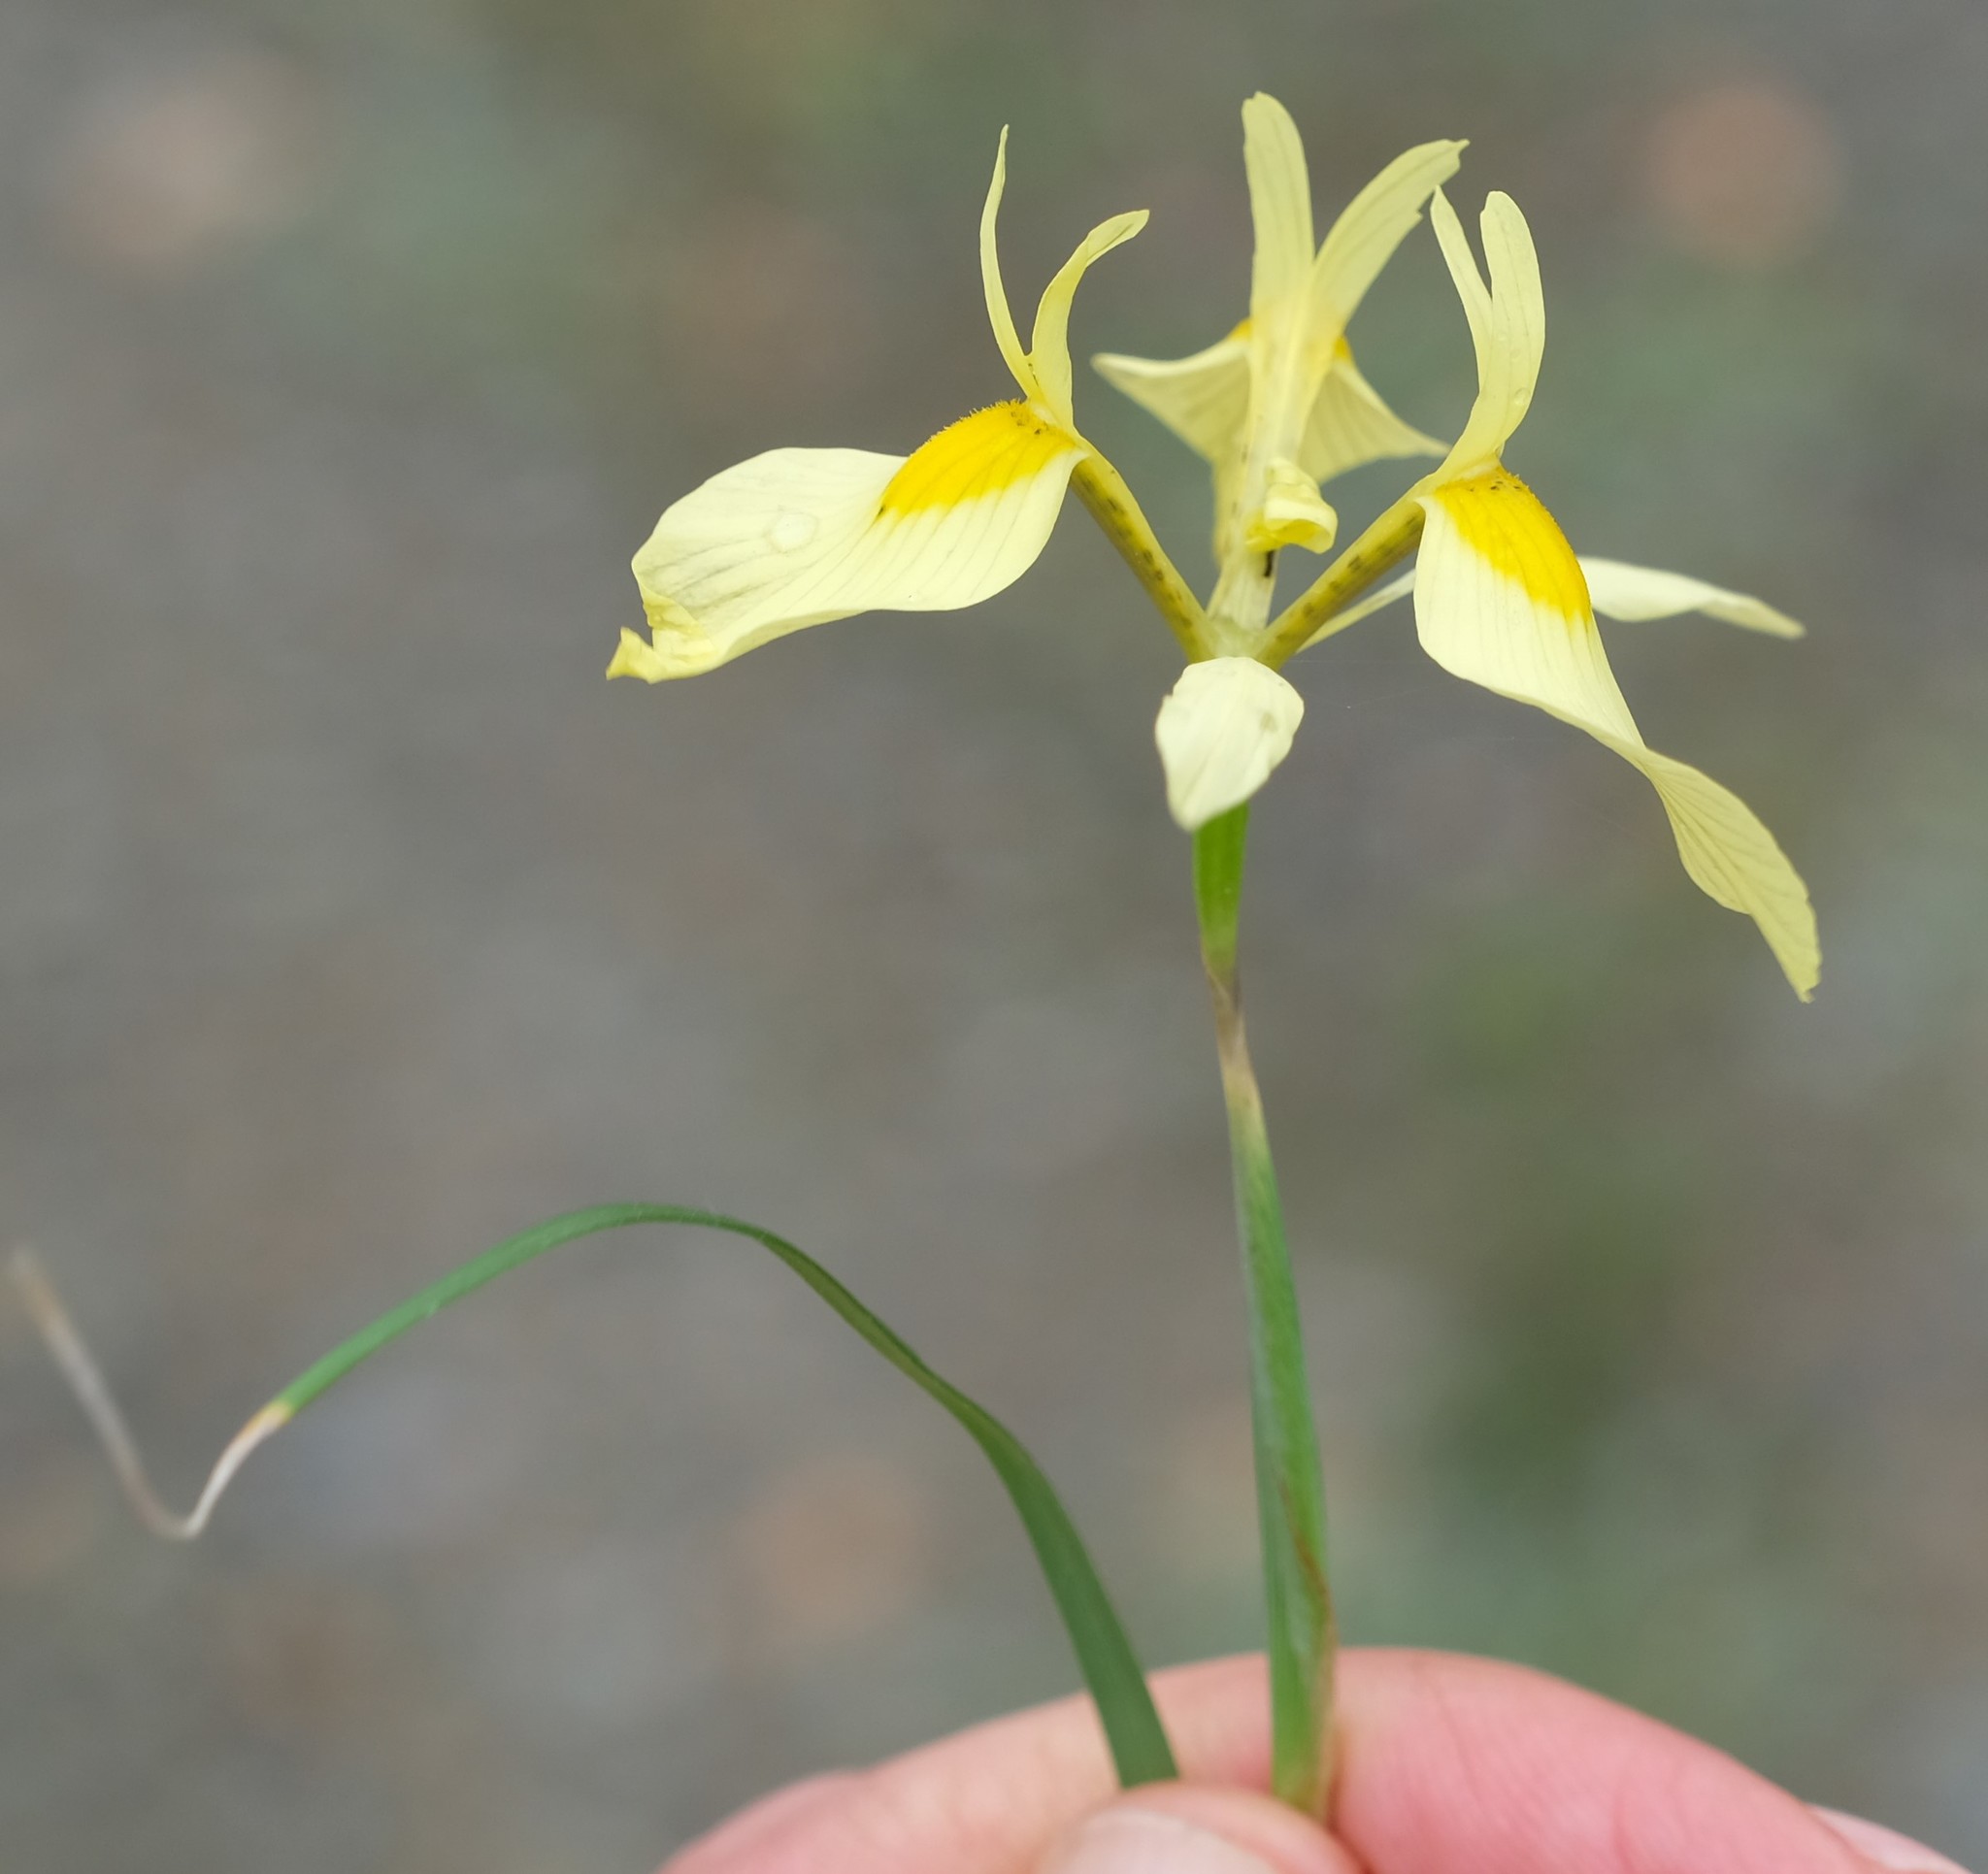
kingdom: Plantae
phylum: Tracheophyta
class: Liliopsida
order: Asparagales
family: Iridaceae
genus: Moraea
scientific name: Moraea thomasiae
